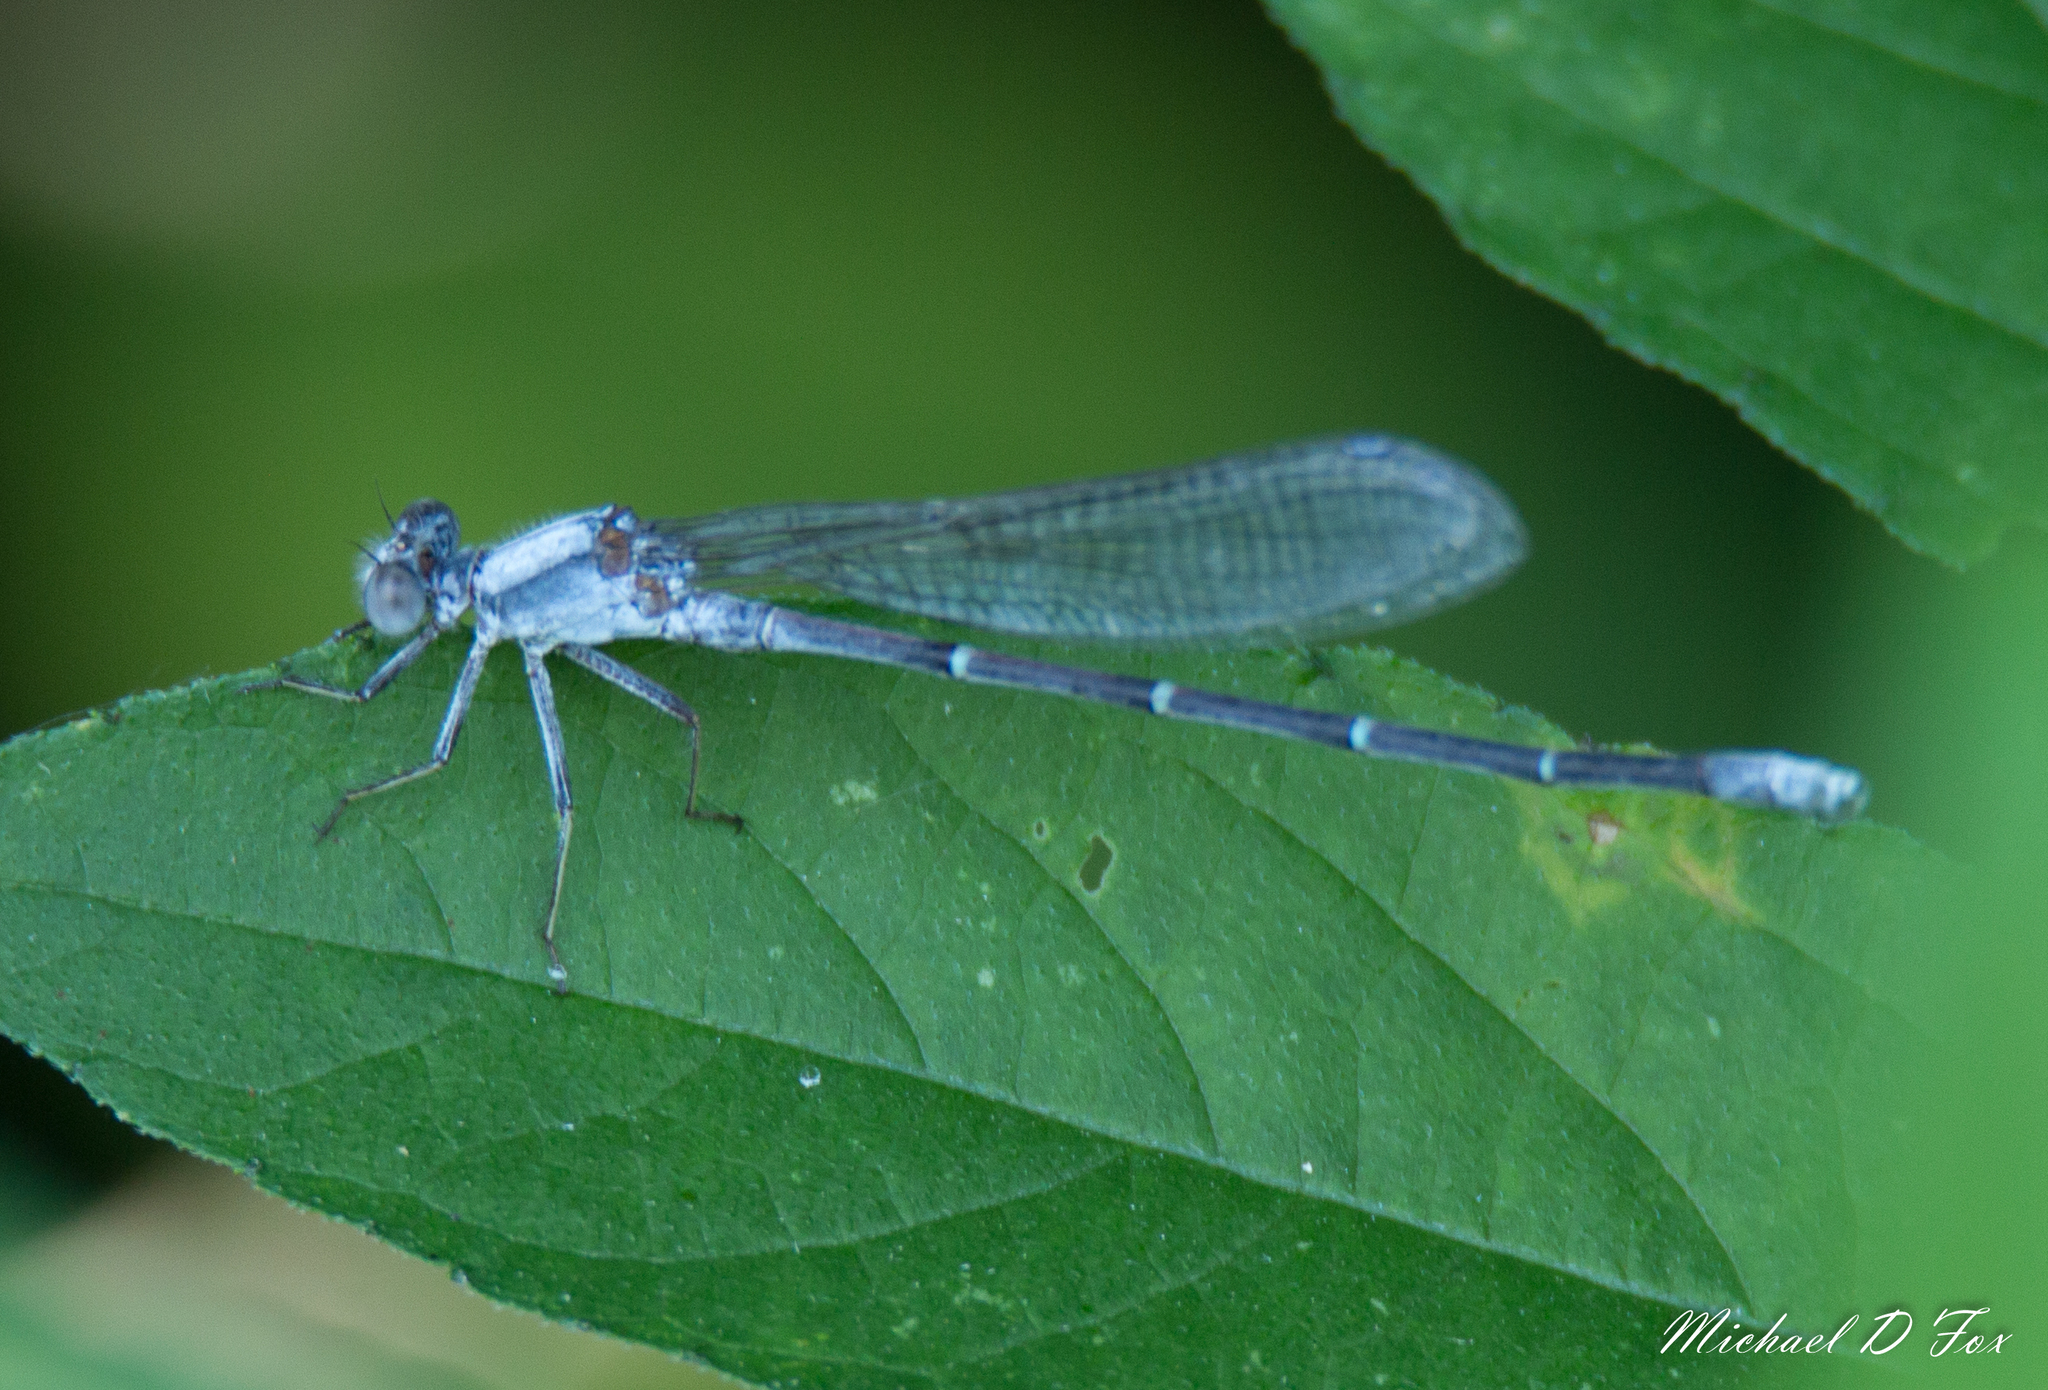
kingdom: Animalia
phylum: Arthropoda
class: Insecta
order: Odonata
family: Coenagrionidae
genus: Argia
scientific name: Argia moesta
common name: Powdered dancer
